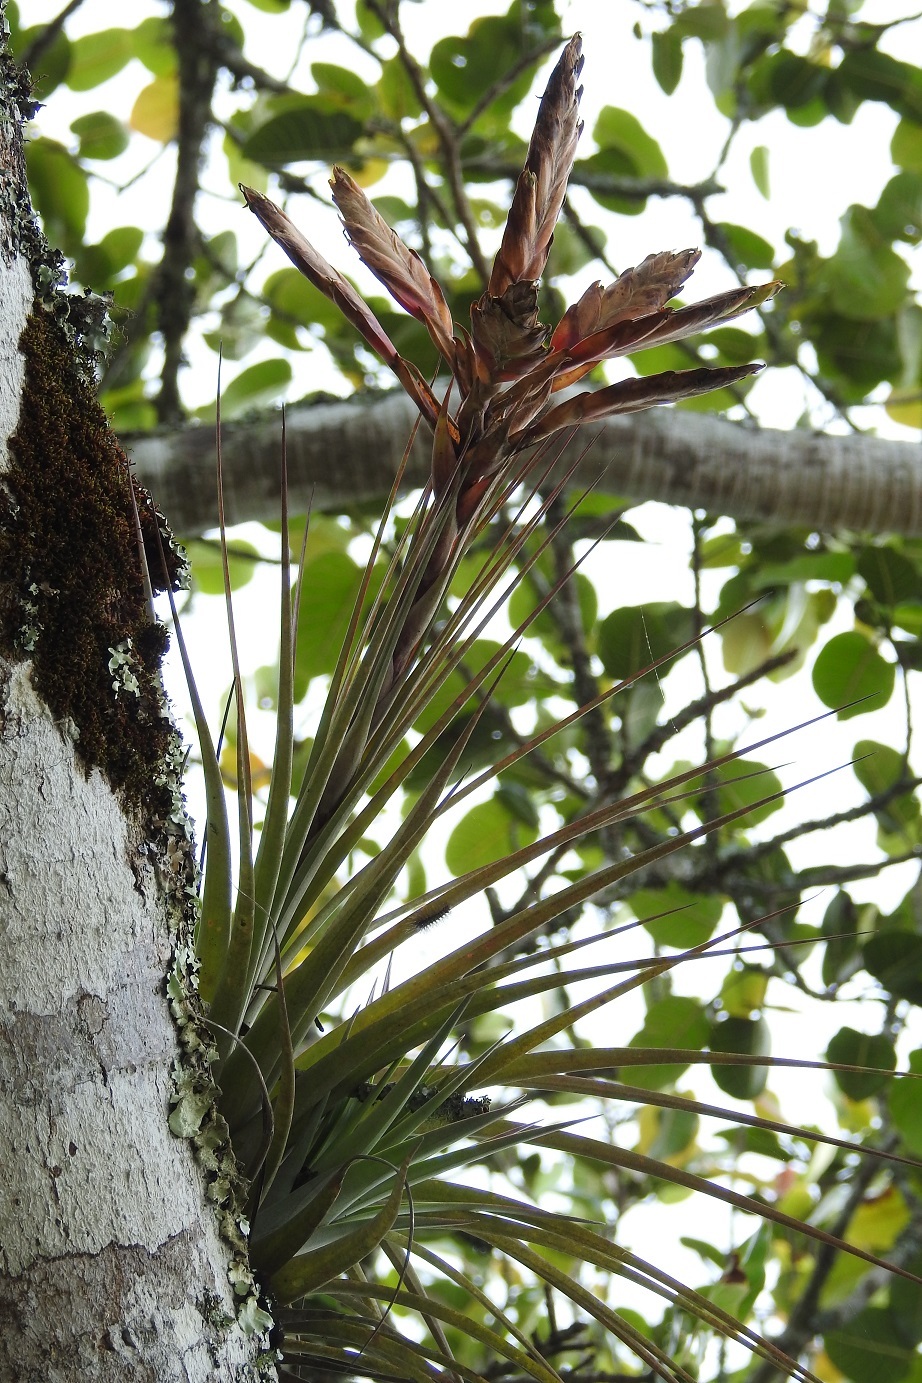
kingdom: Plantae
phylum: Tracheophyta
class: Liliopsida
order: Poales
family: Bromeliaceae
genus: Tillandsia
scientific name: Tillandsia fasciculata
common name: Giant airplant
